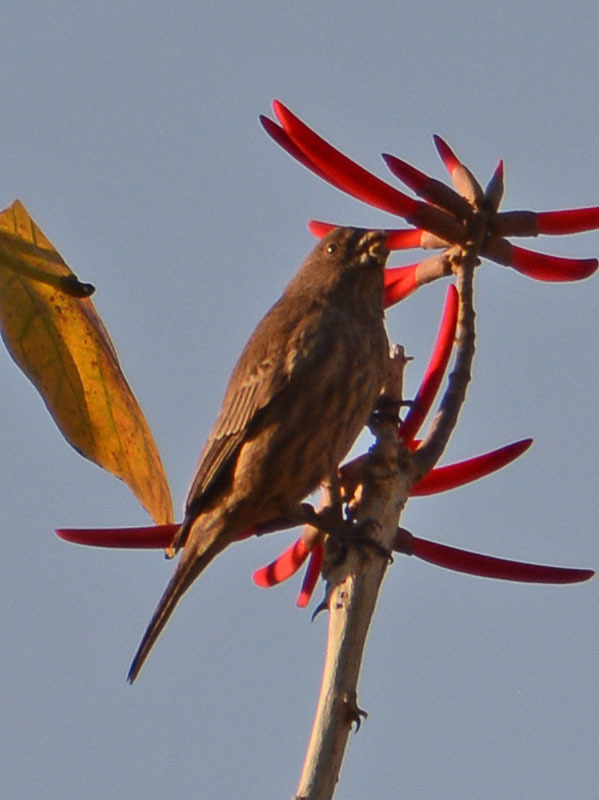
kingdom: Animalia
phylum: Chordata
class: Aves
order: Passeriformes
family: Fringillidae
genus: Haemorhous
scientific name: Haemorhous mexicanus
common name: House finch
